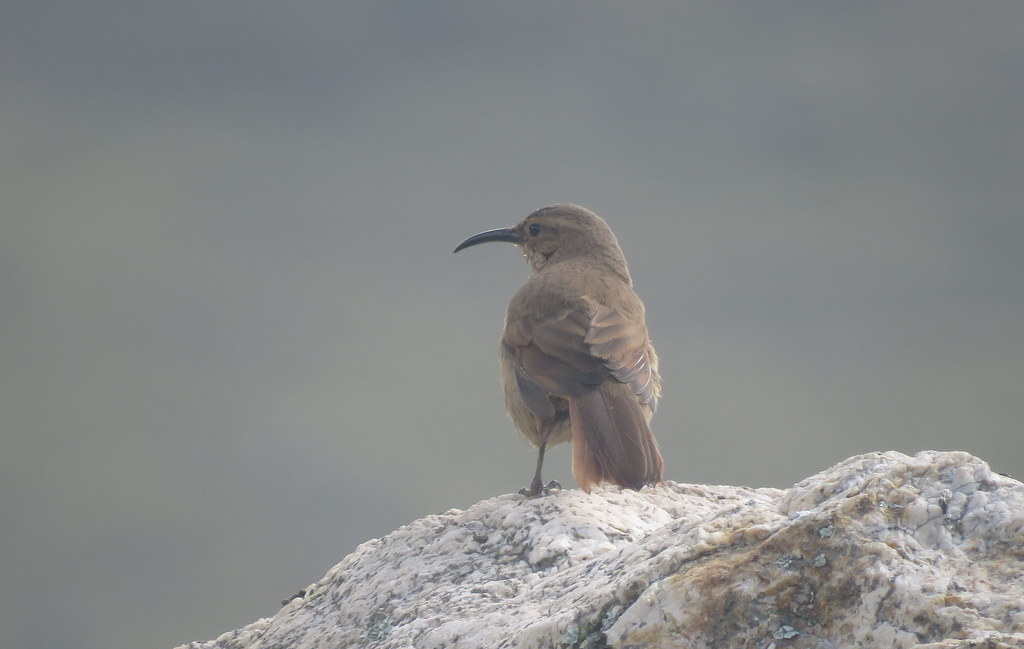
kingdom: Animalia
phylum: Chordata
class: Aves
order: Passeriformes
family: Furnariidae
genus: Upucerthia
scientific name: Upucerthia validirostris
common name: Buff-breasted earthcreeper
